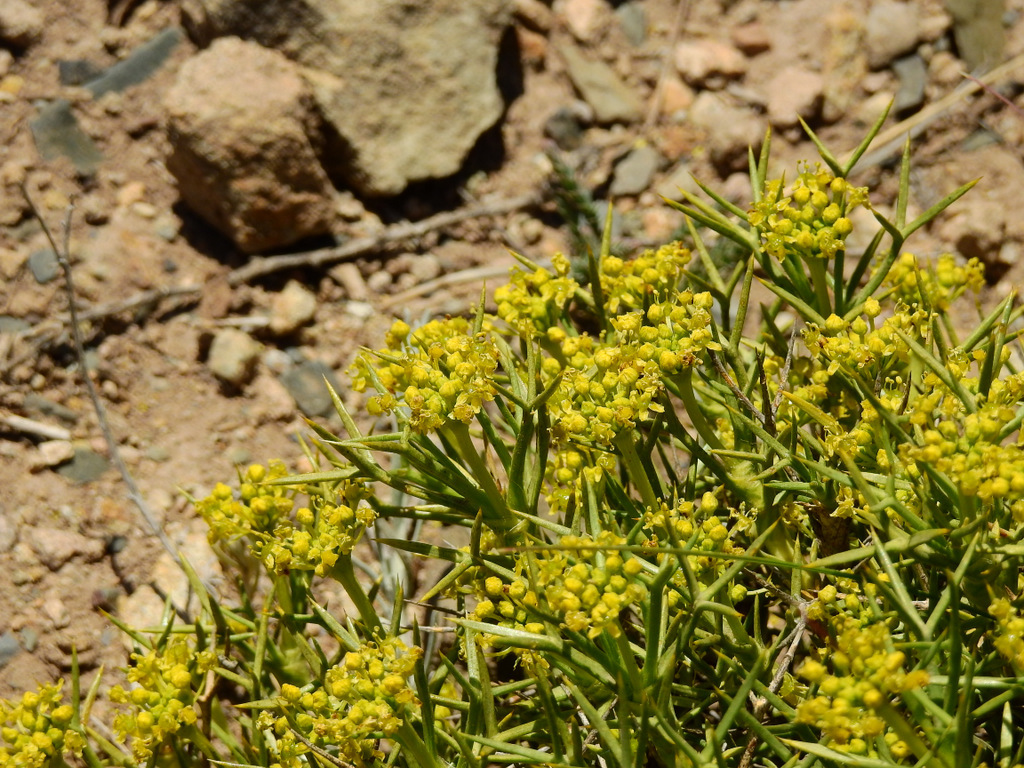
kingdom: Plantae
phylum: Tracheophyta
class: Magnoliopsida
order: Apiales
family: Apiaceae
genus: Azorella
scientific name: Azorella prolifera
